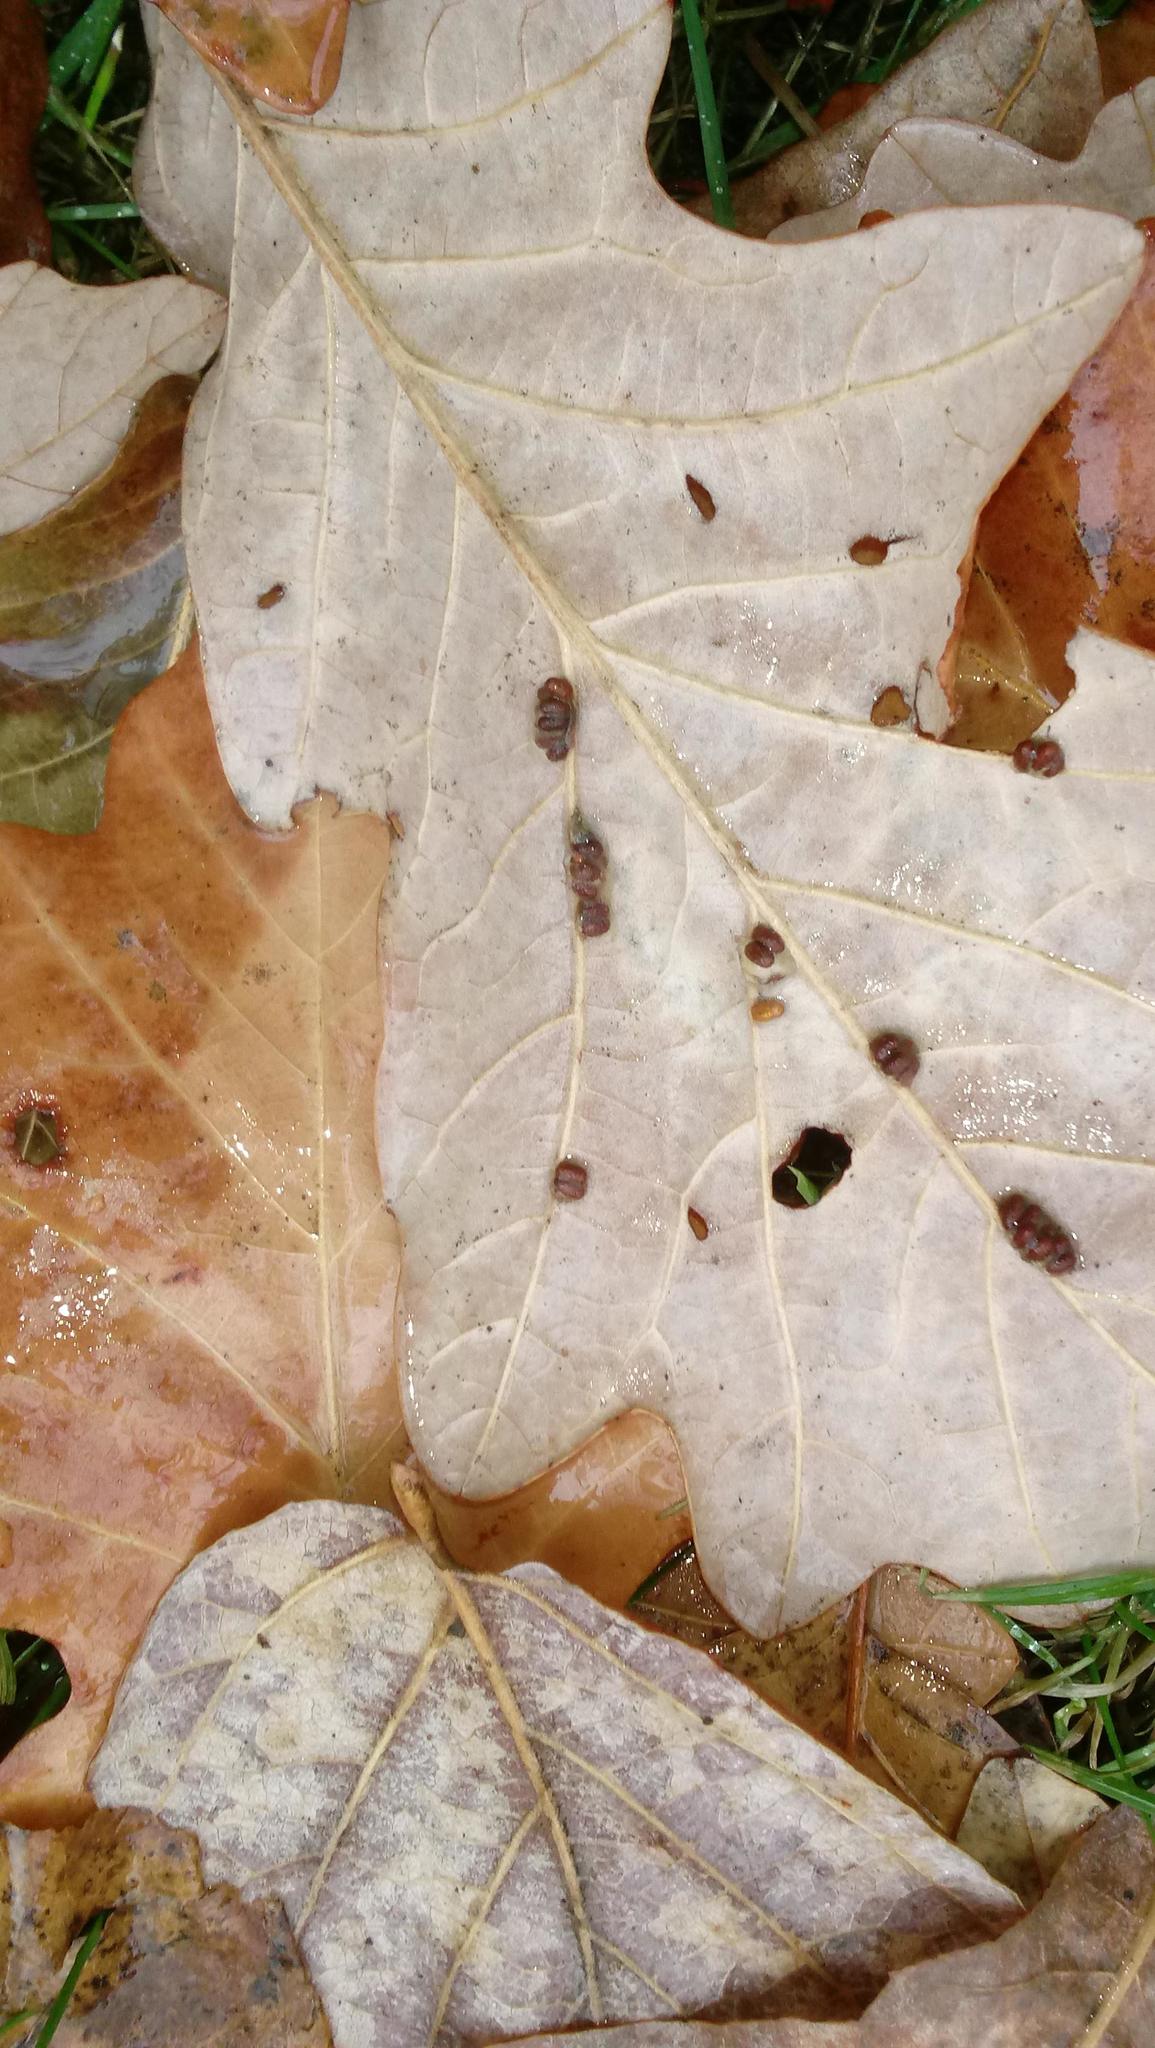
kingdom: Animalia
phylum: Arthropoda
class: Insecta
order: Hymenoptera
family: Cynipidae
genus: Andricus
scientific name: Andricus Druon ignotum
